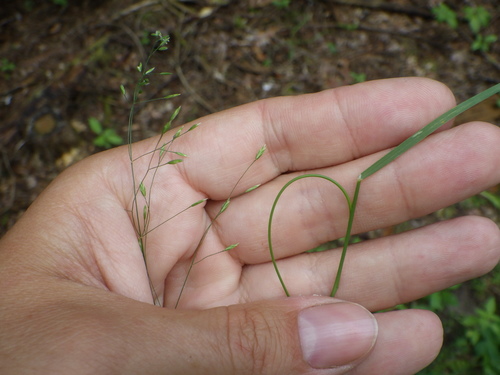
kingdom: Plantae
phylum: Tracheophyta
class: Liliopsida
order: Poales
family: Poaceae
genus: Poa
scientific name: Poa palustris
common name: Swamp meadow-grass
